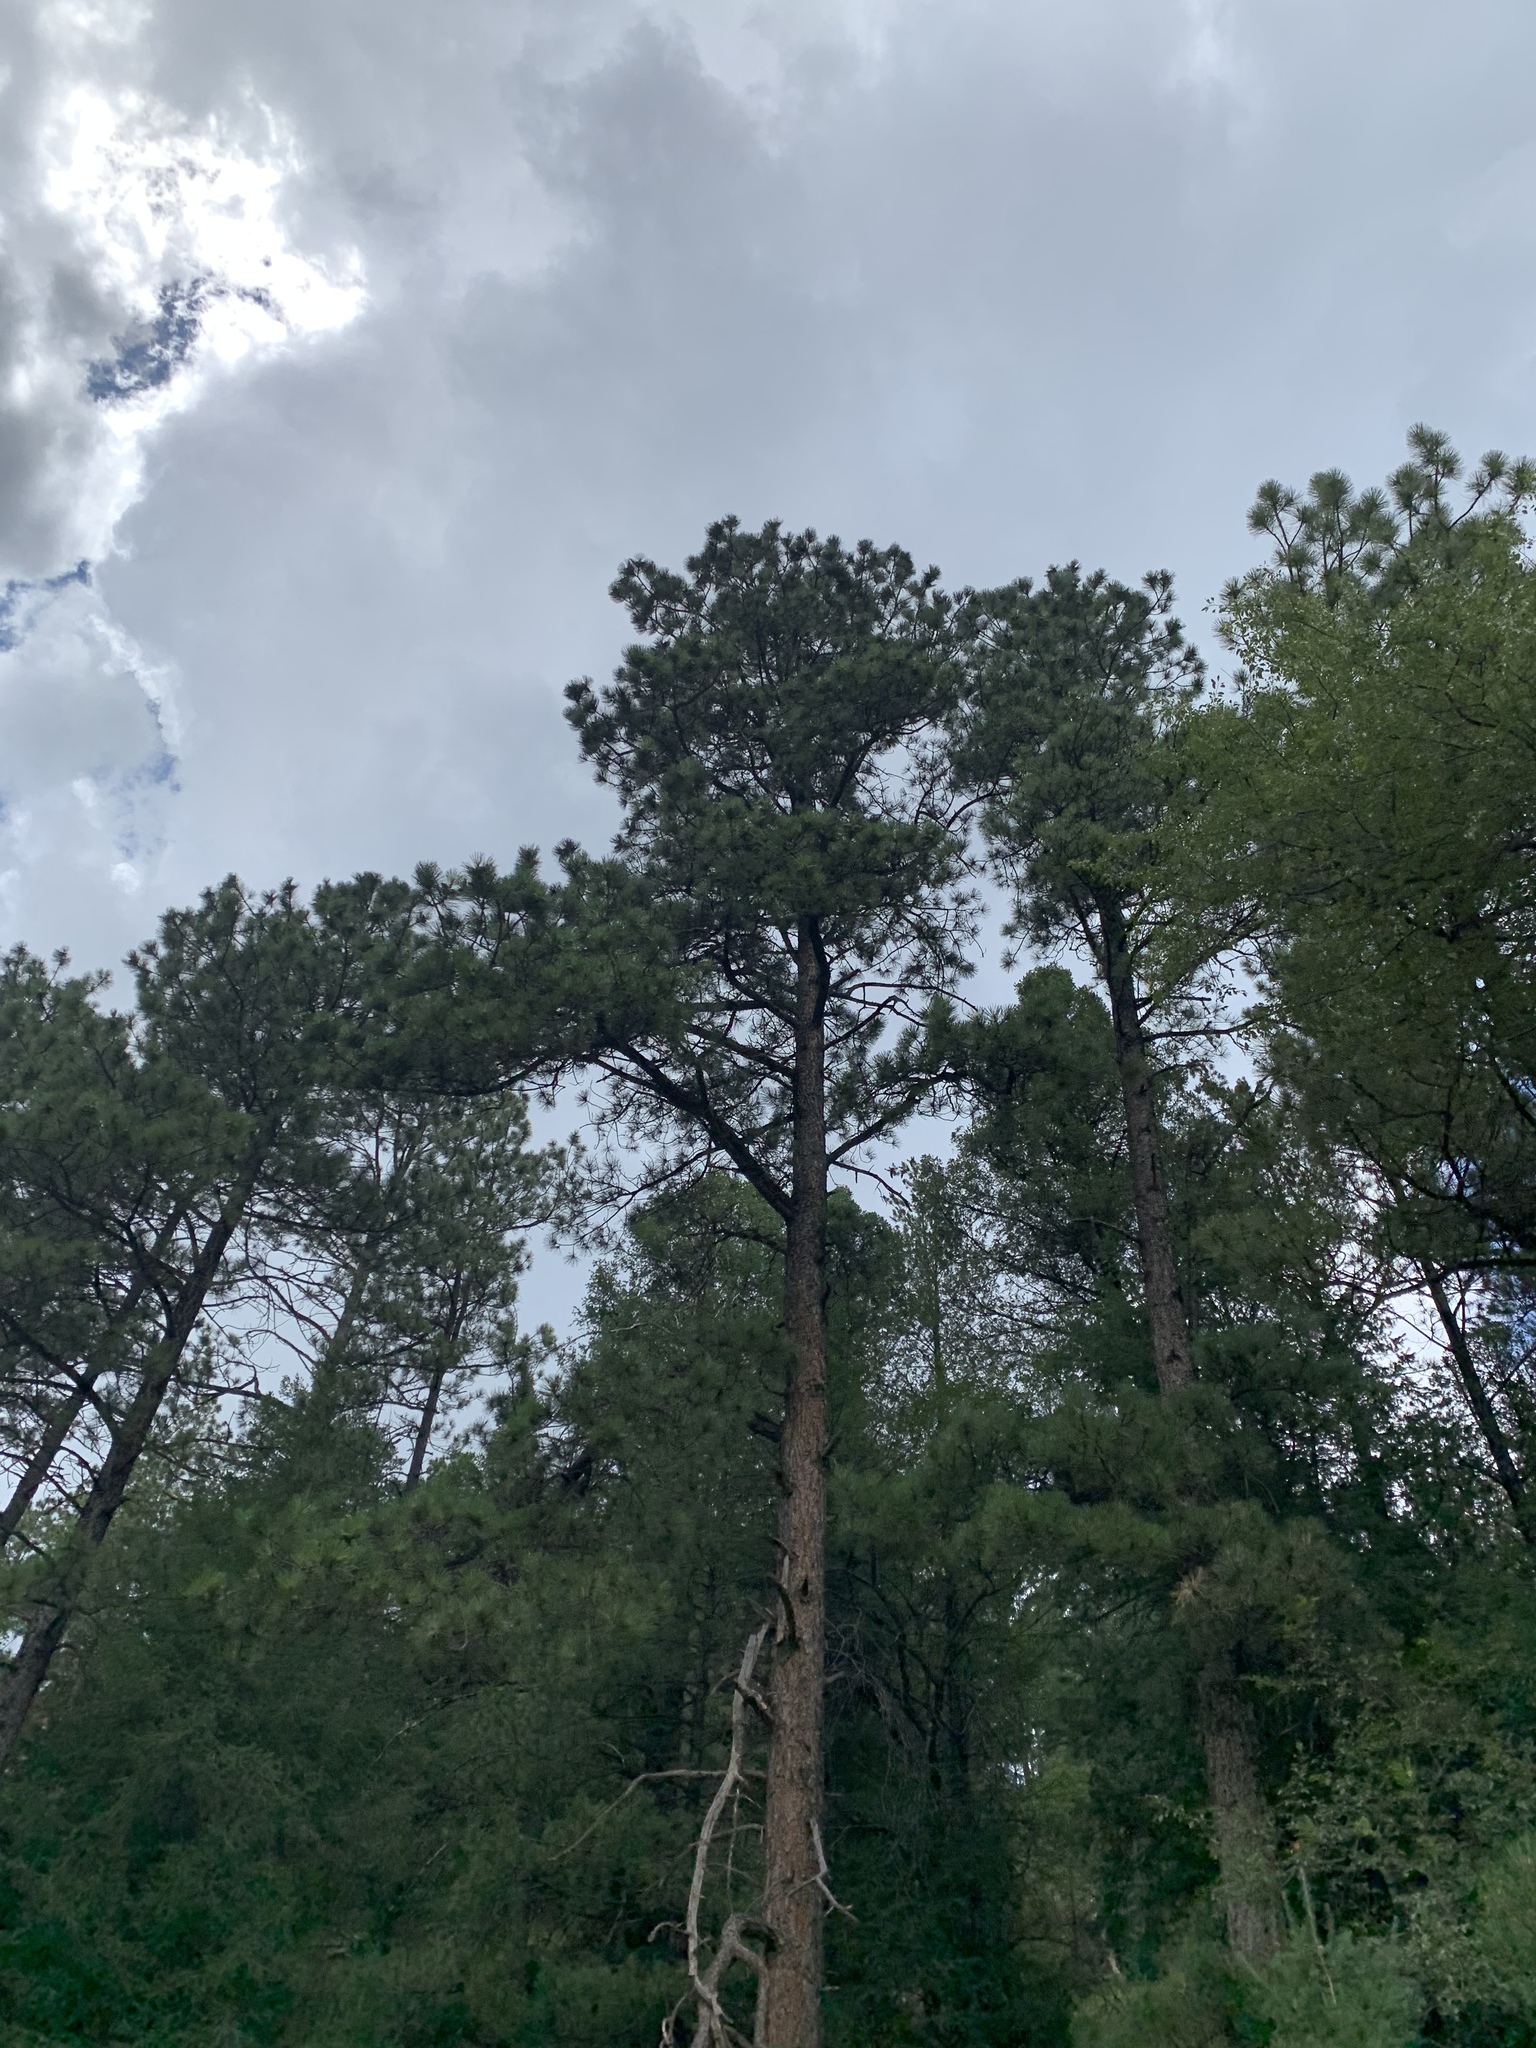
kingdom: Plantae
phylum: Tracheophyta
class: Pinopsida
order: Pinales
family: Pinaceae
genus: Pinus
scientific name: Pinus ponderosa
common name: Western yellow-pine
